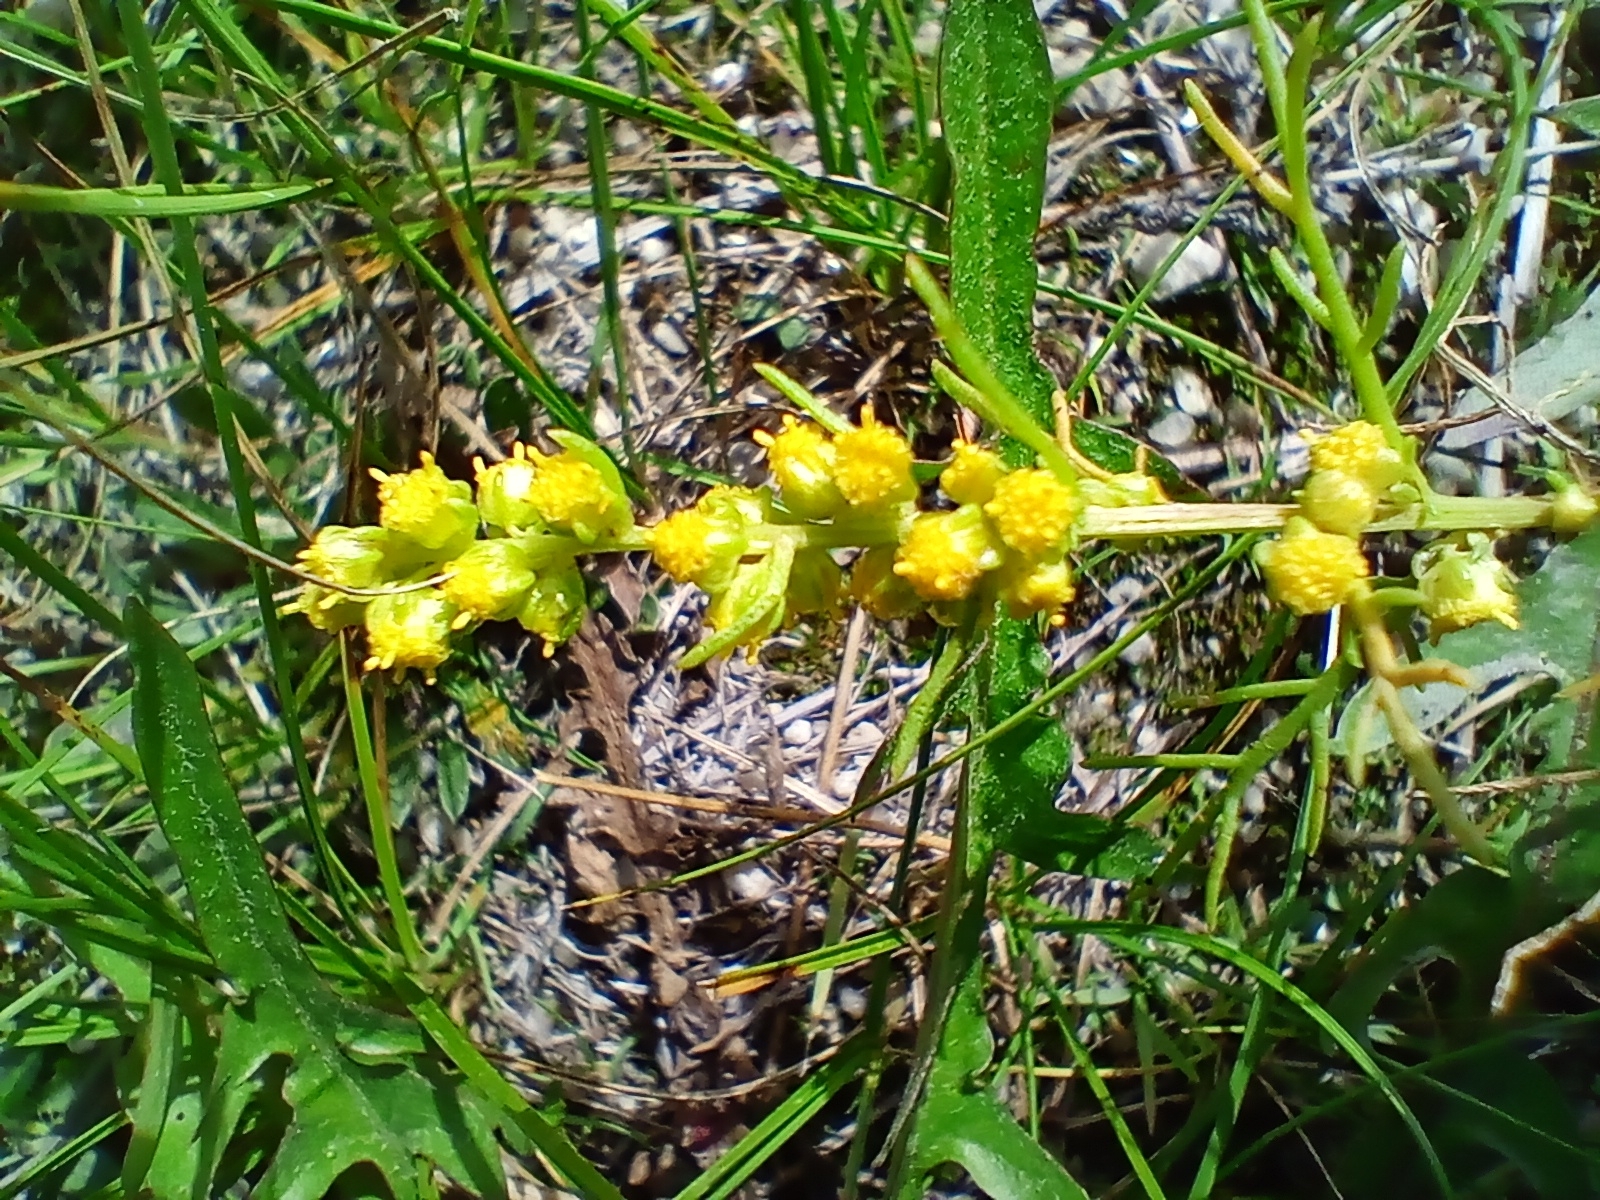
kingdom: Plantae
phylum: Tracheophyta
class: Magnoliopsida
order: Asterales
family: Asteraceae
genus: Artemisia
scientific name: Artemisia palustris
